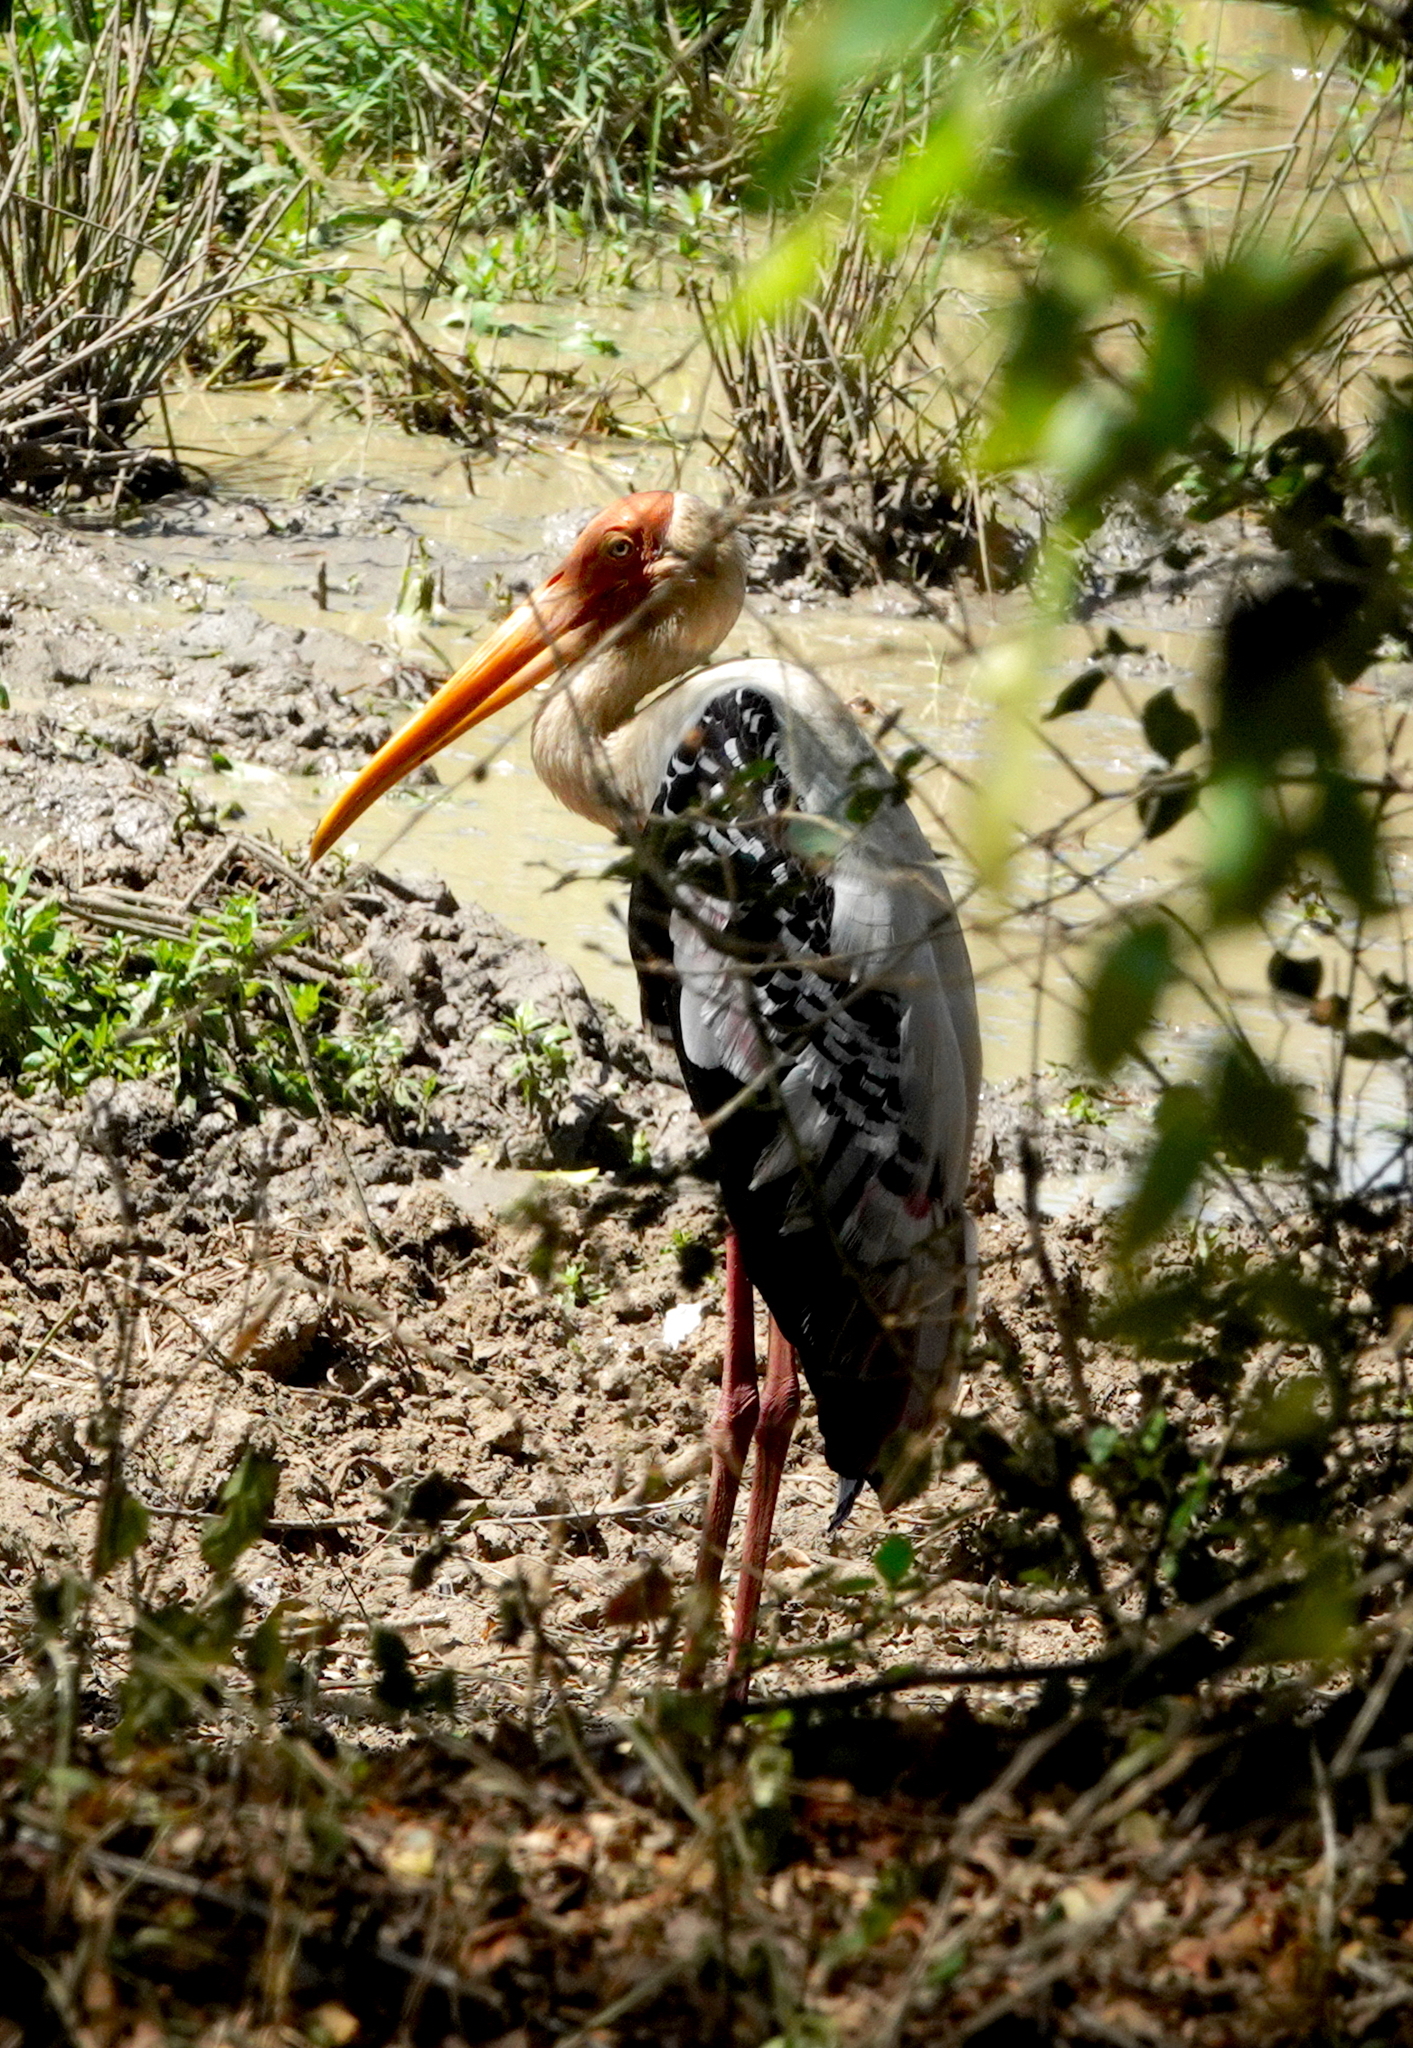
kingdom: Animalia
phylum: Chordata
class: Aves
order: Ciconiiformes
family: Ciconiidae
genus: Mycteria
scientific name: Mycteria leucocephala
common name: Painted stork
